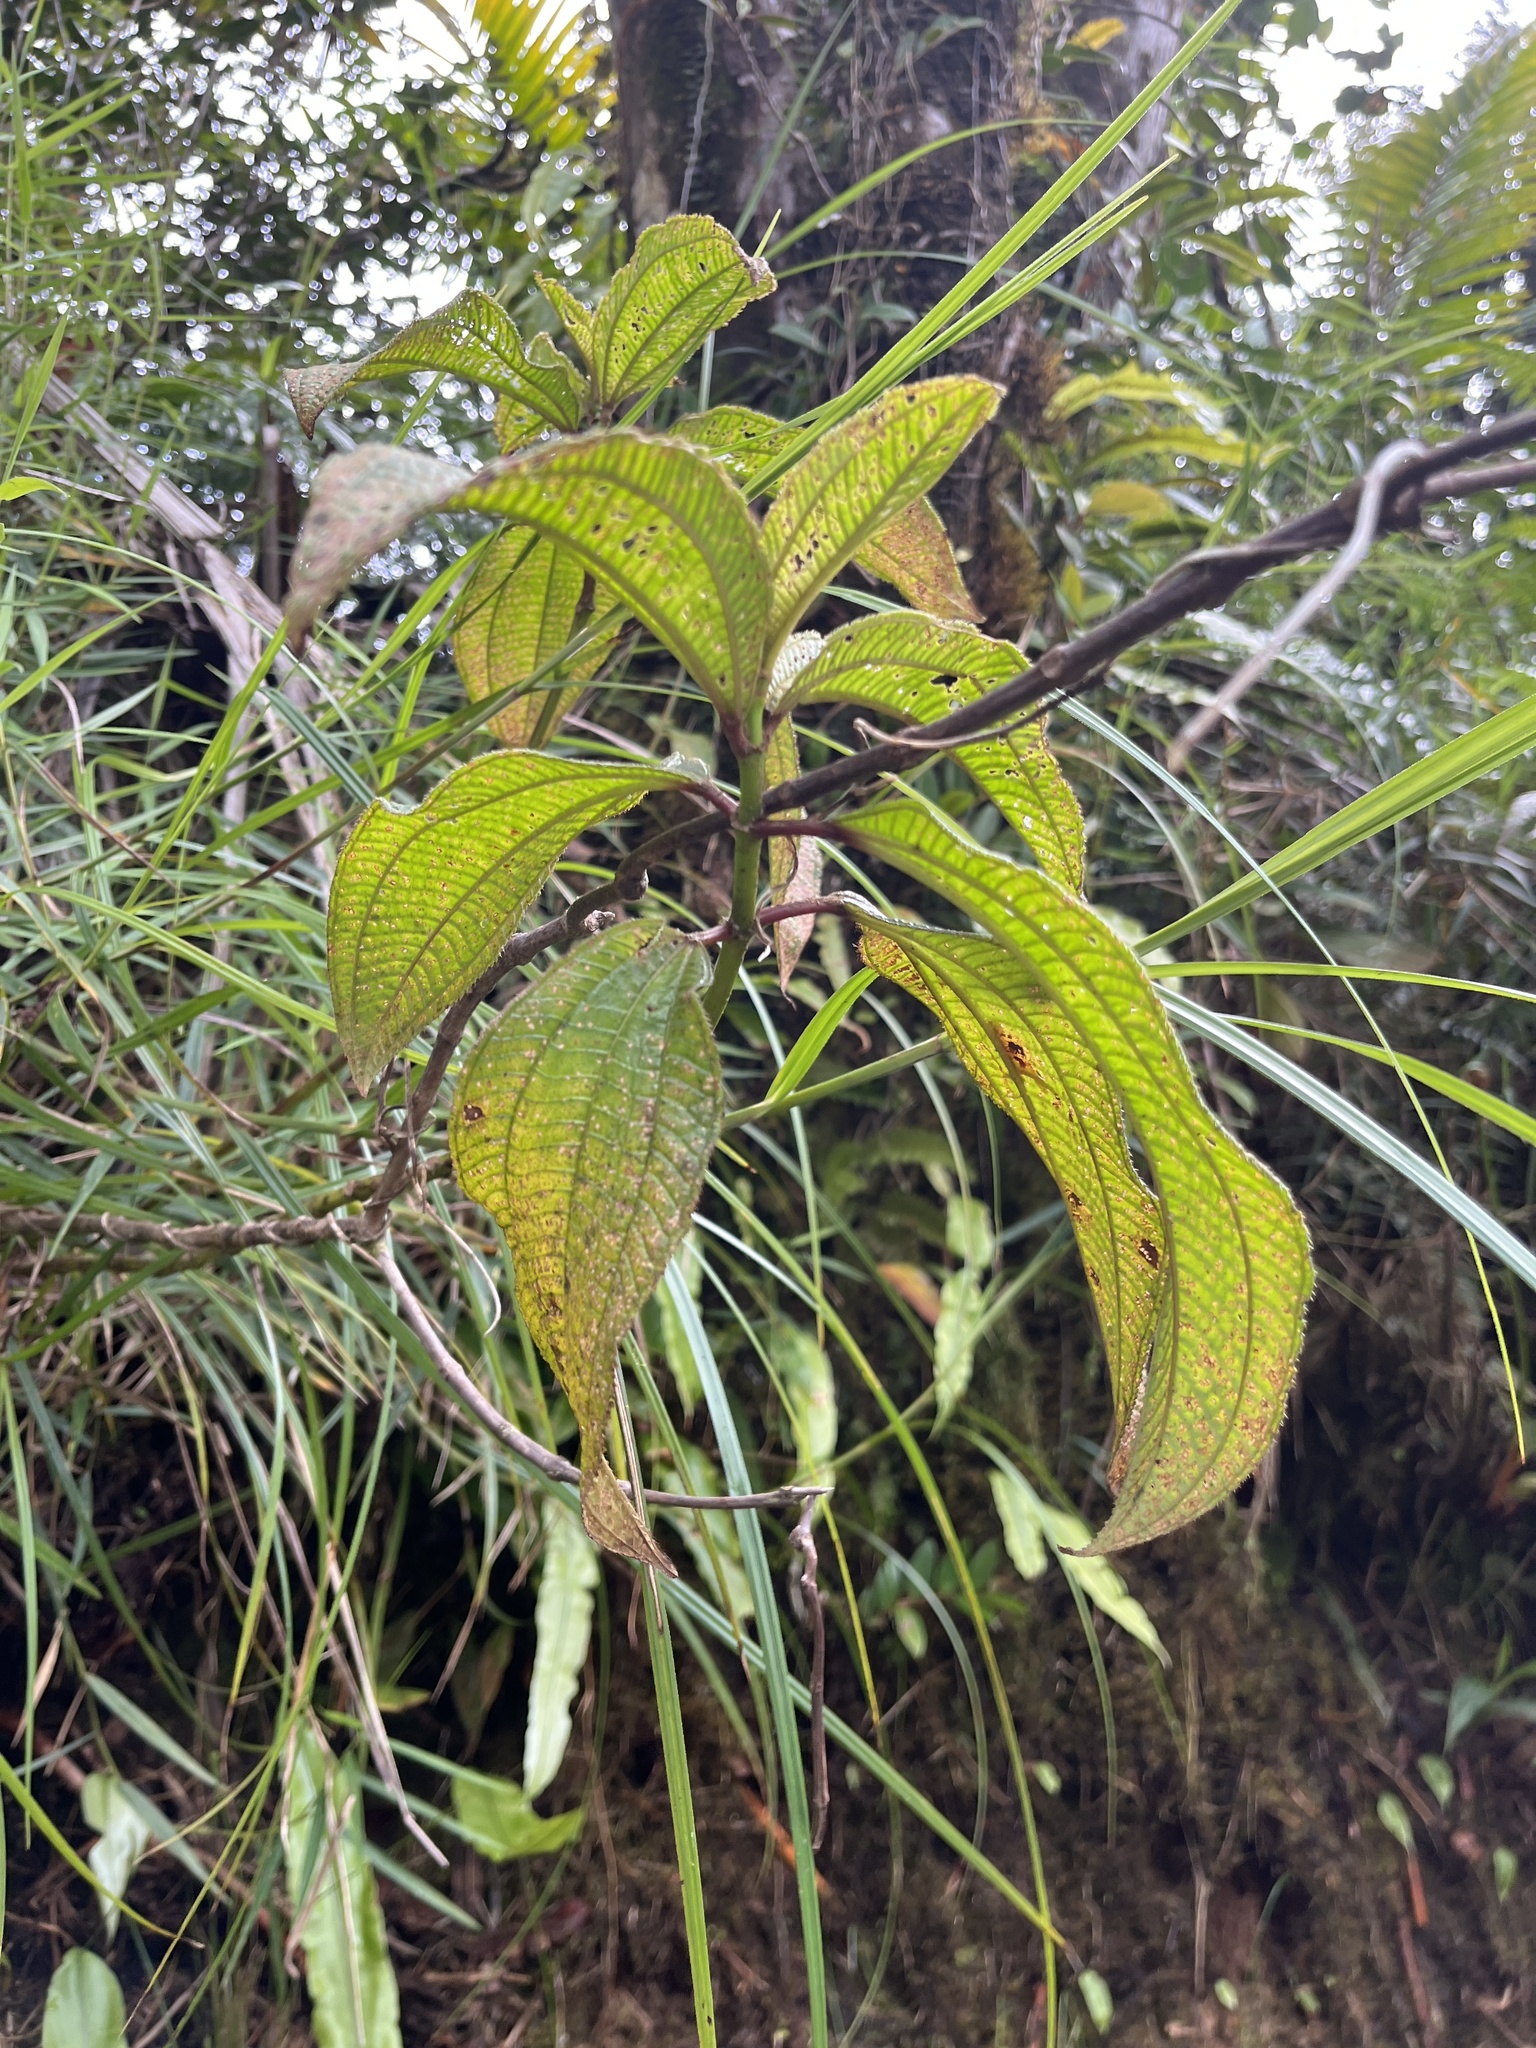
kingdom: Plantae
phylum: Tracheophyta
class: Magnoliopsida
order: Myrtales
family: Melastomataceae
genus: Miconia
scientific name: Miconia racemosa
